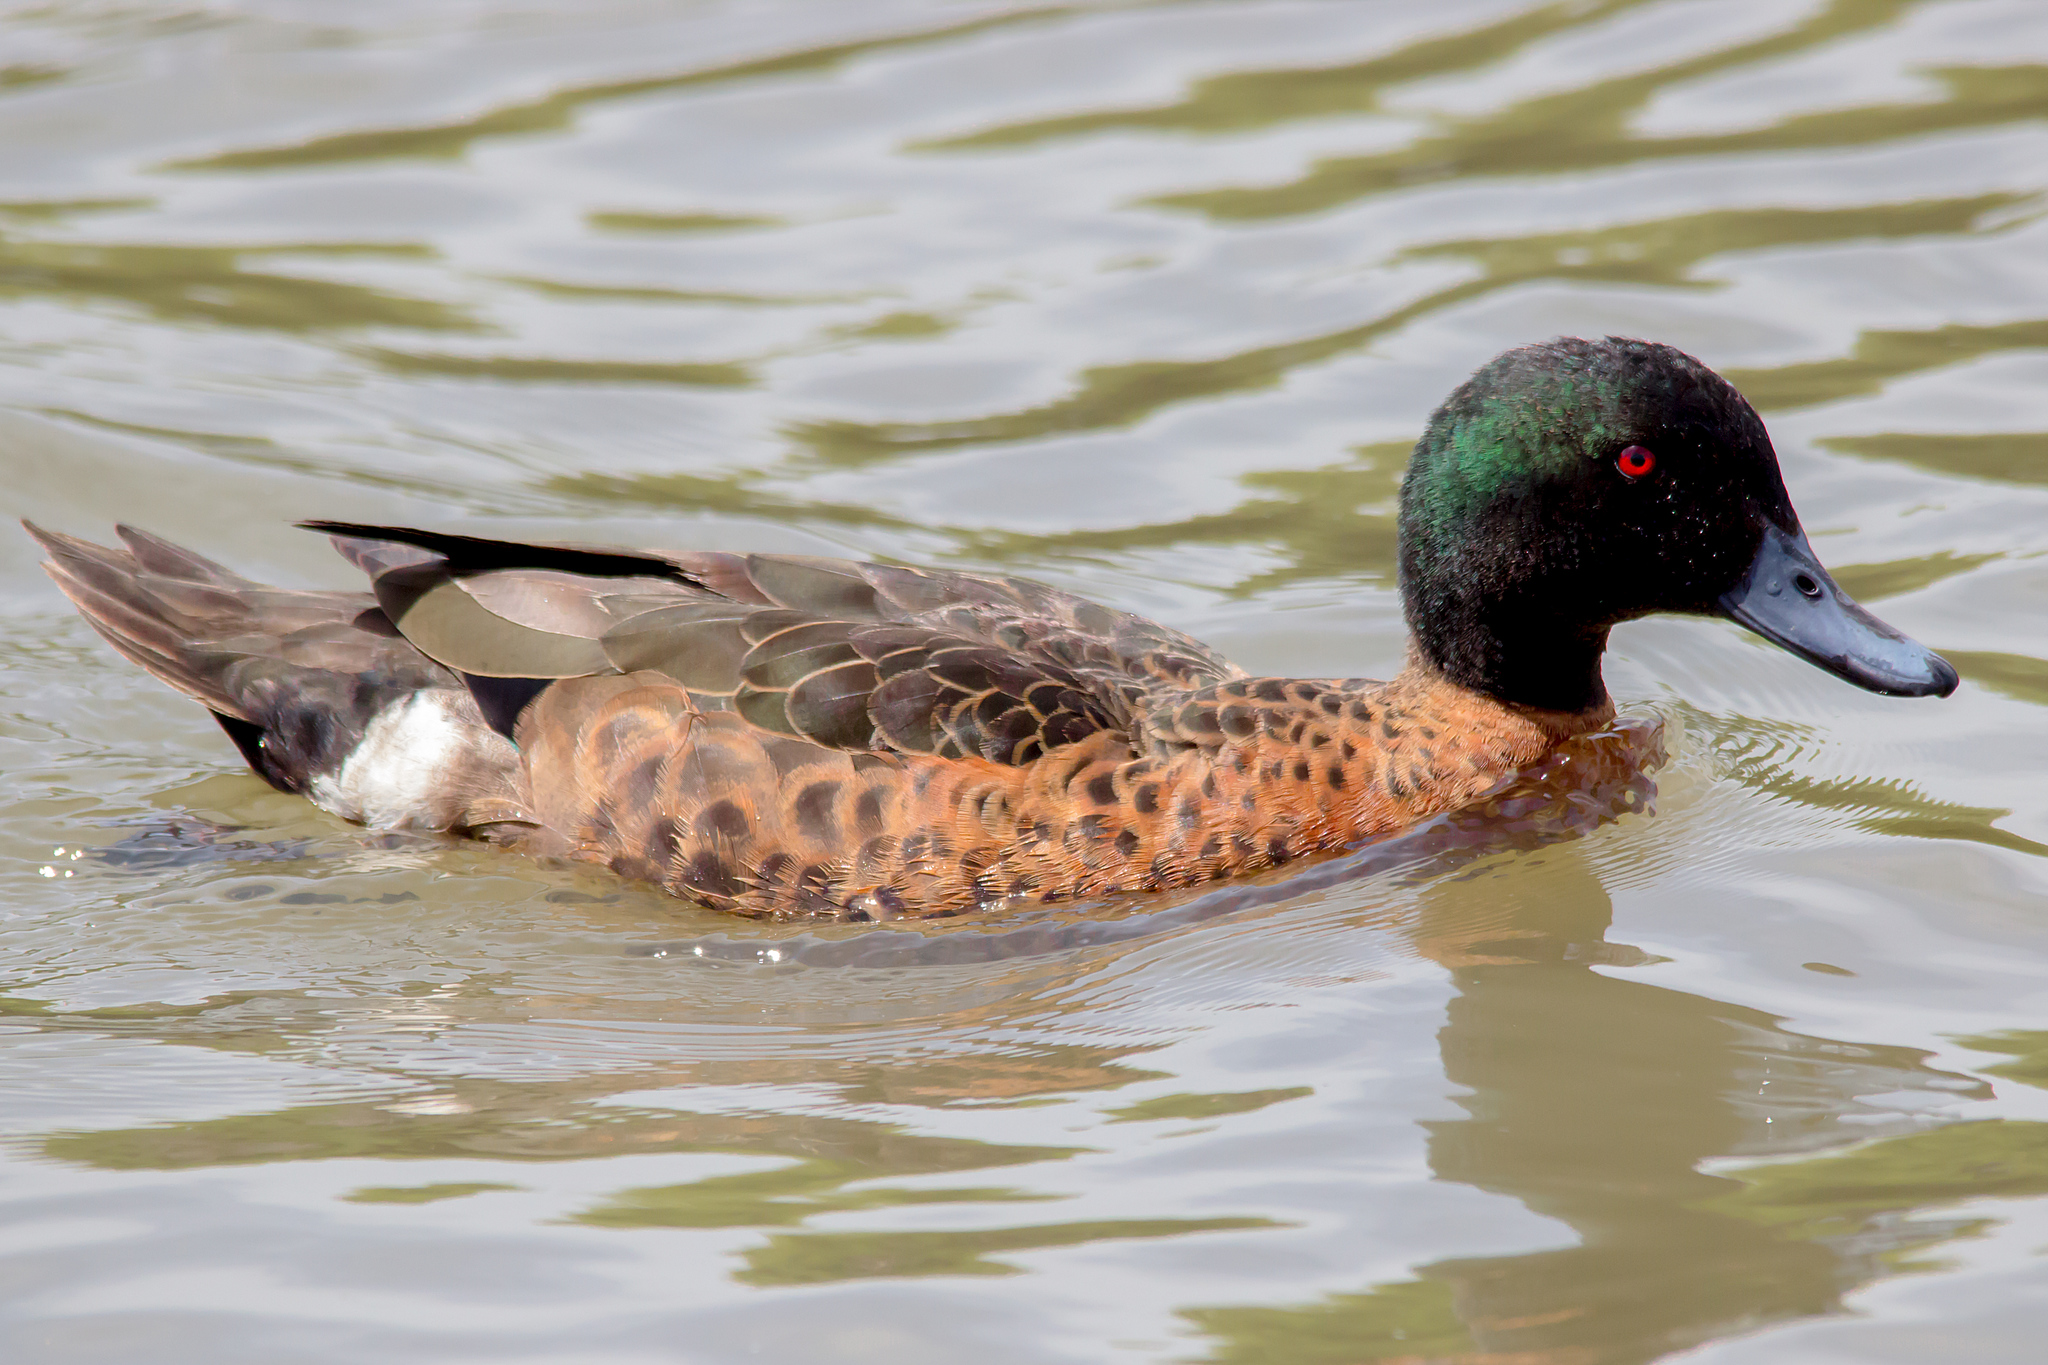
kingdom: Animalia
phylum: Chordata
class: Aves
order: Anseriformes
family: Anatidae
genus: Anas
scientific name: Anas castanea
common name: Chestnut teal
